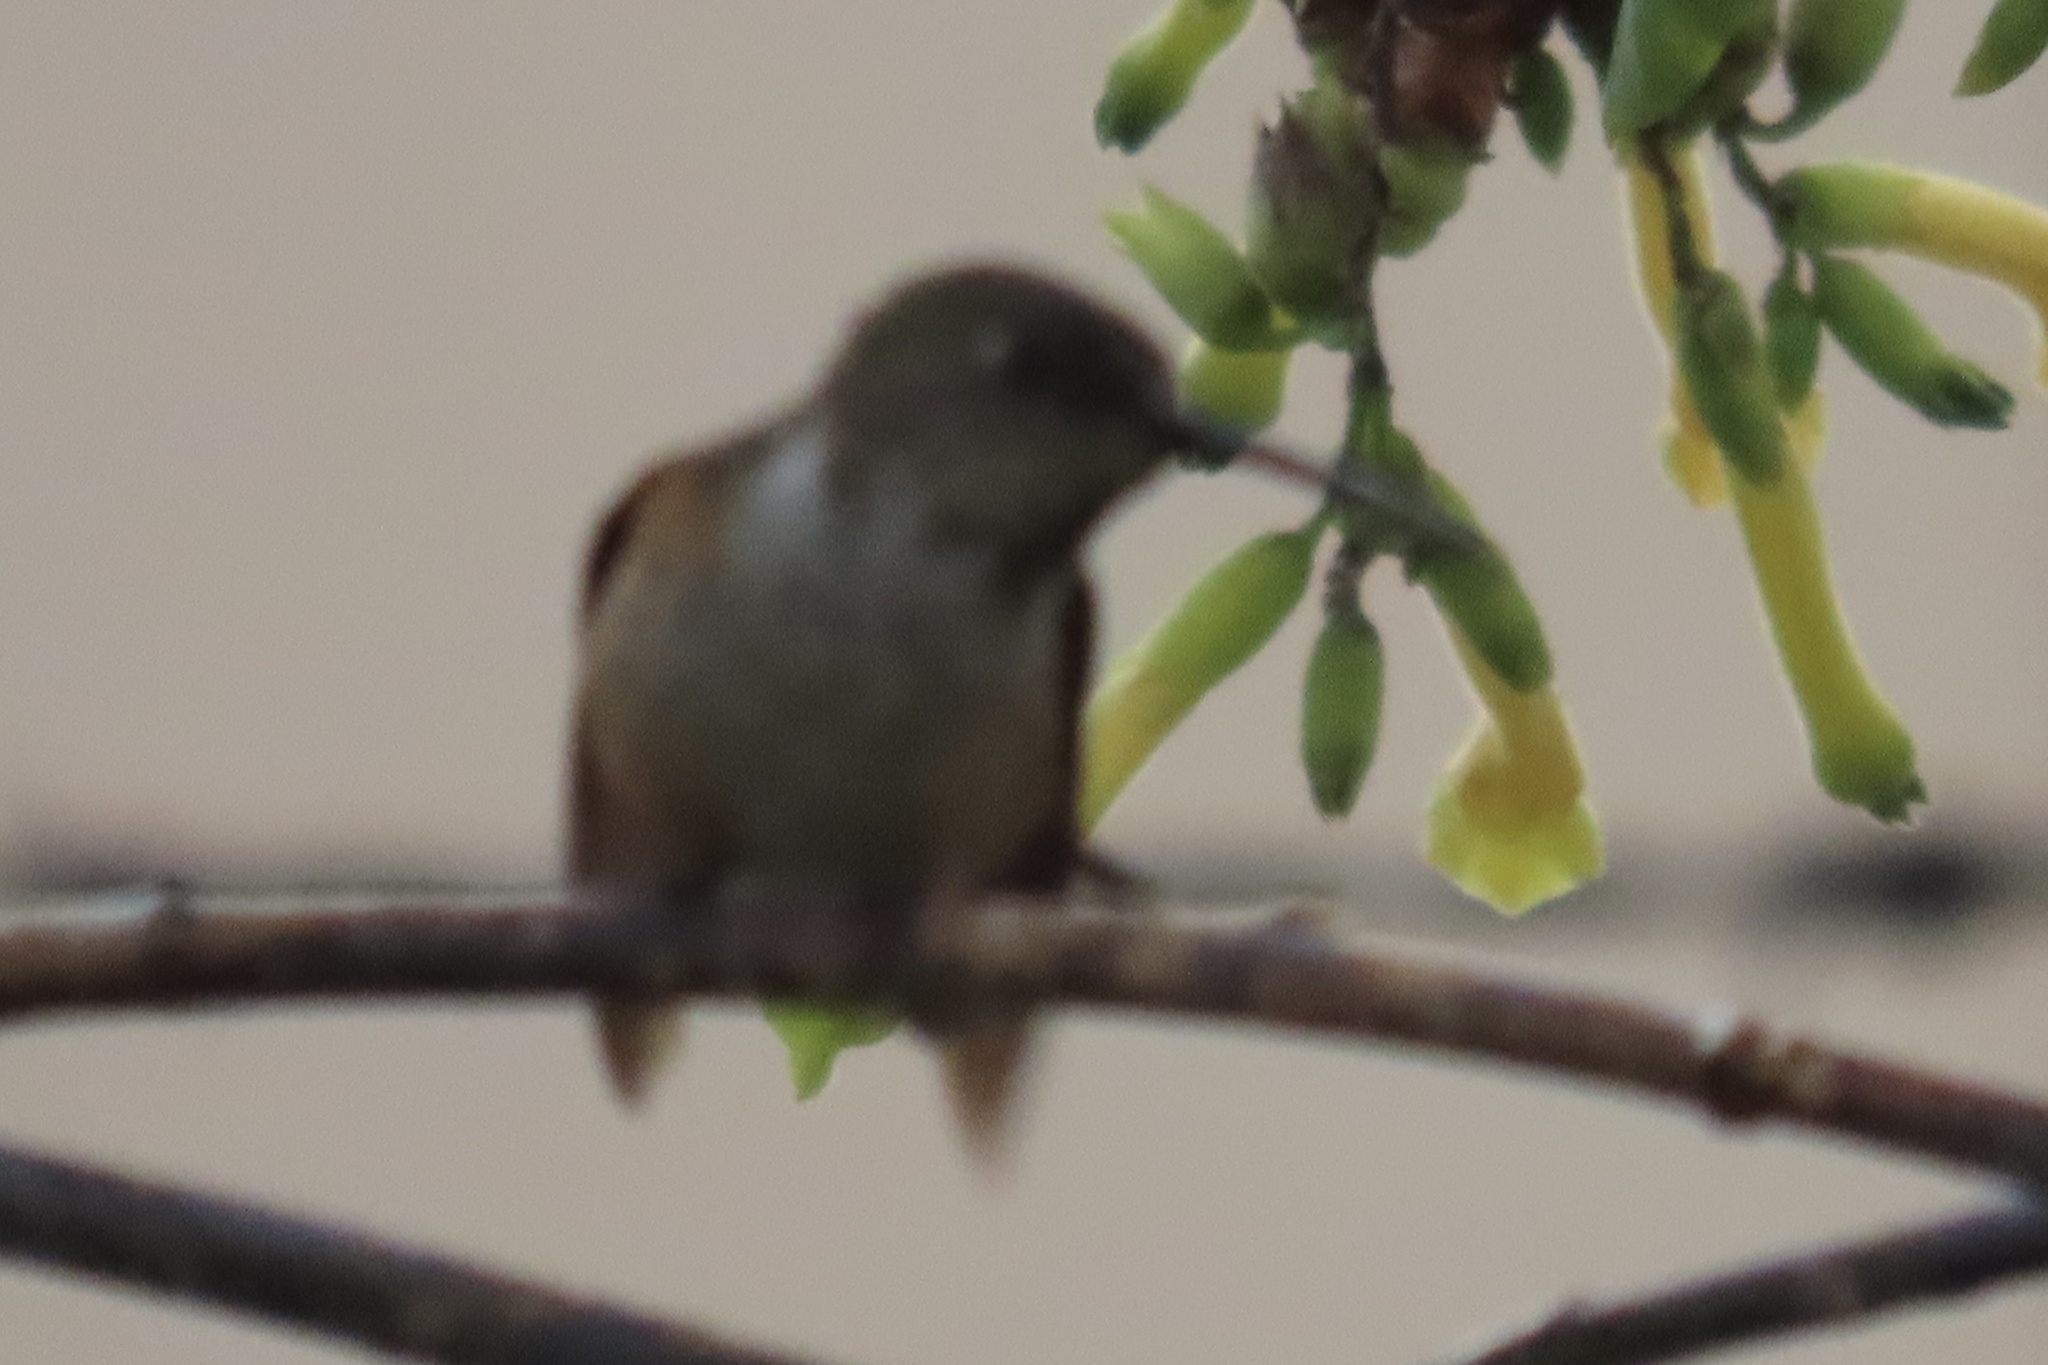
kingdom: Animalia
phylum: Chordata
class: Aves
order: Apodiformes
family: Trochilidae
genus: Selasphorus
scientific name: Selasphorus
